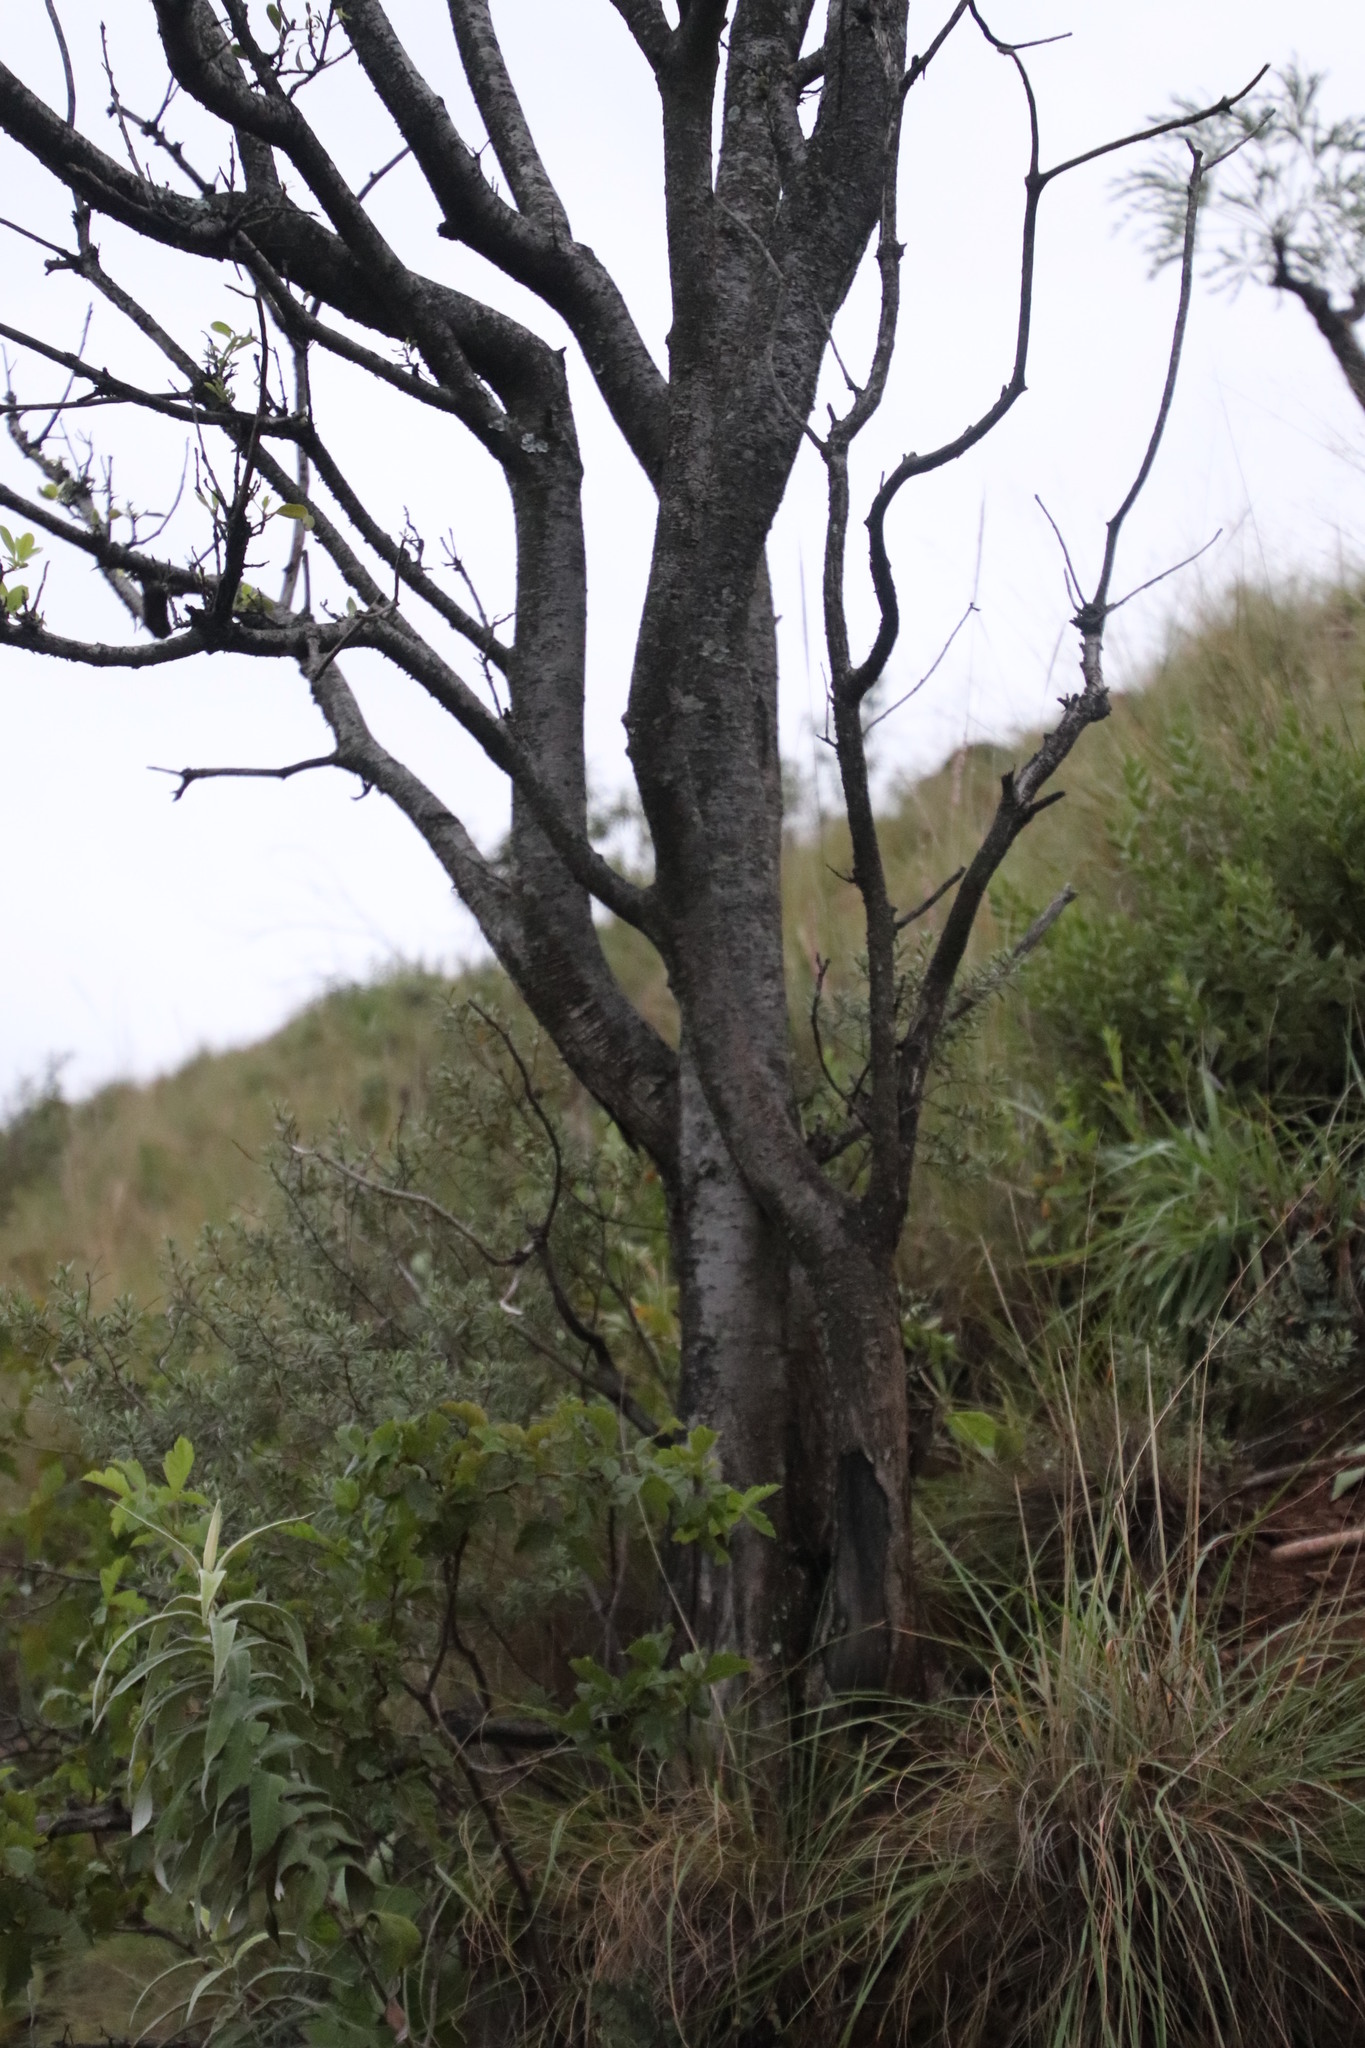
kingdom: Plantae
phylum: Tracheophyta
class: Magnoliopsida
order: Apiales
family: Pittosporaceae
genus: Pittosporum
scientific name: Pittosporum viridiflorum
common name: Cape cheesewood
